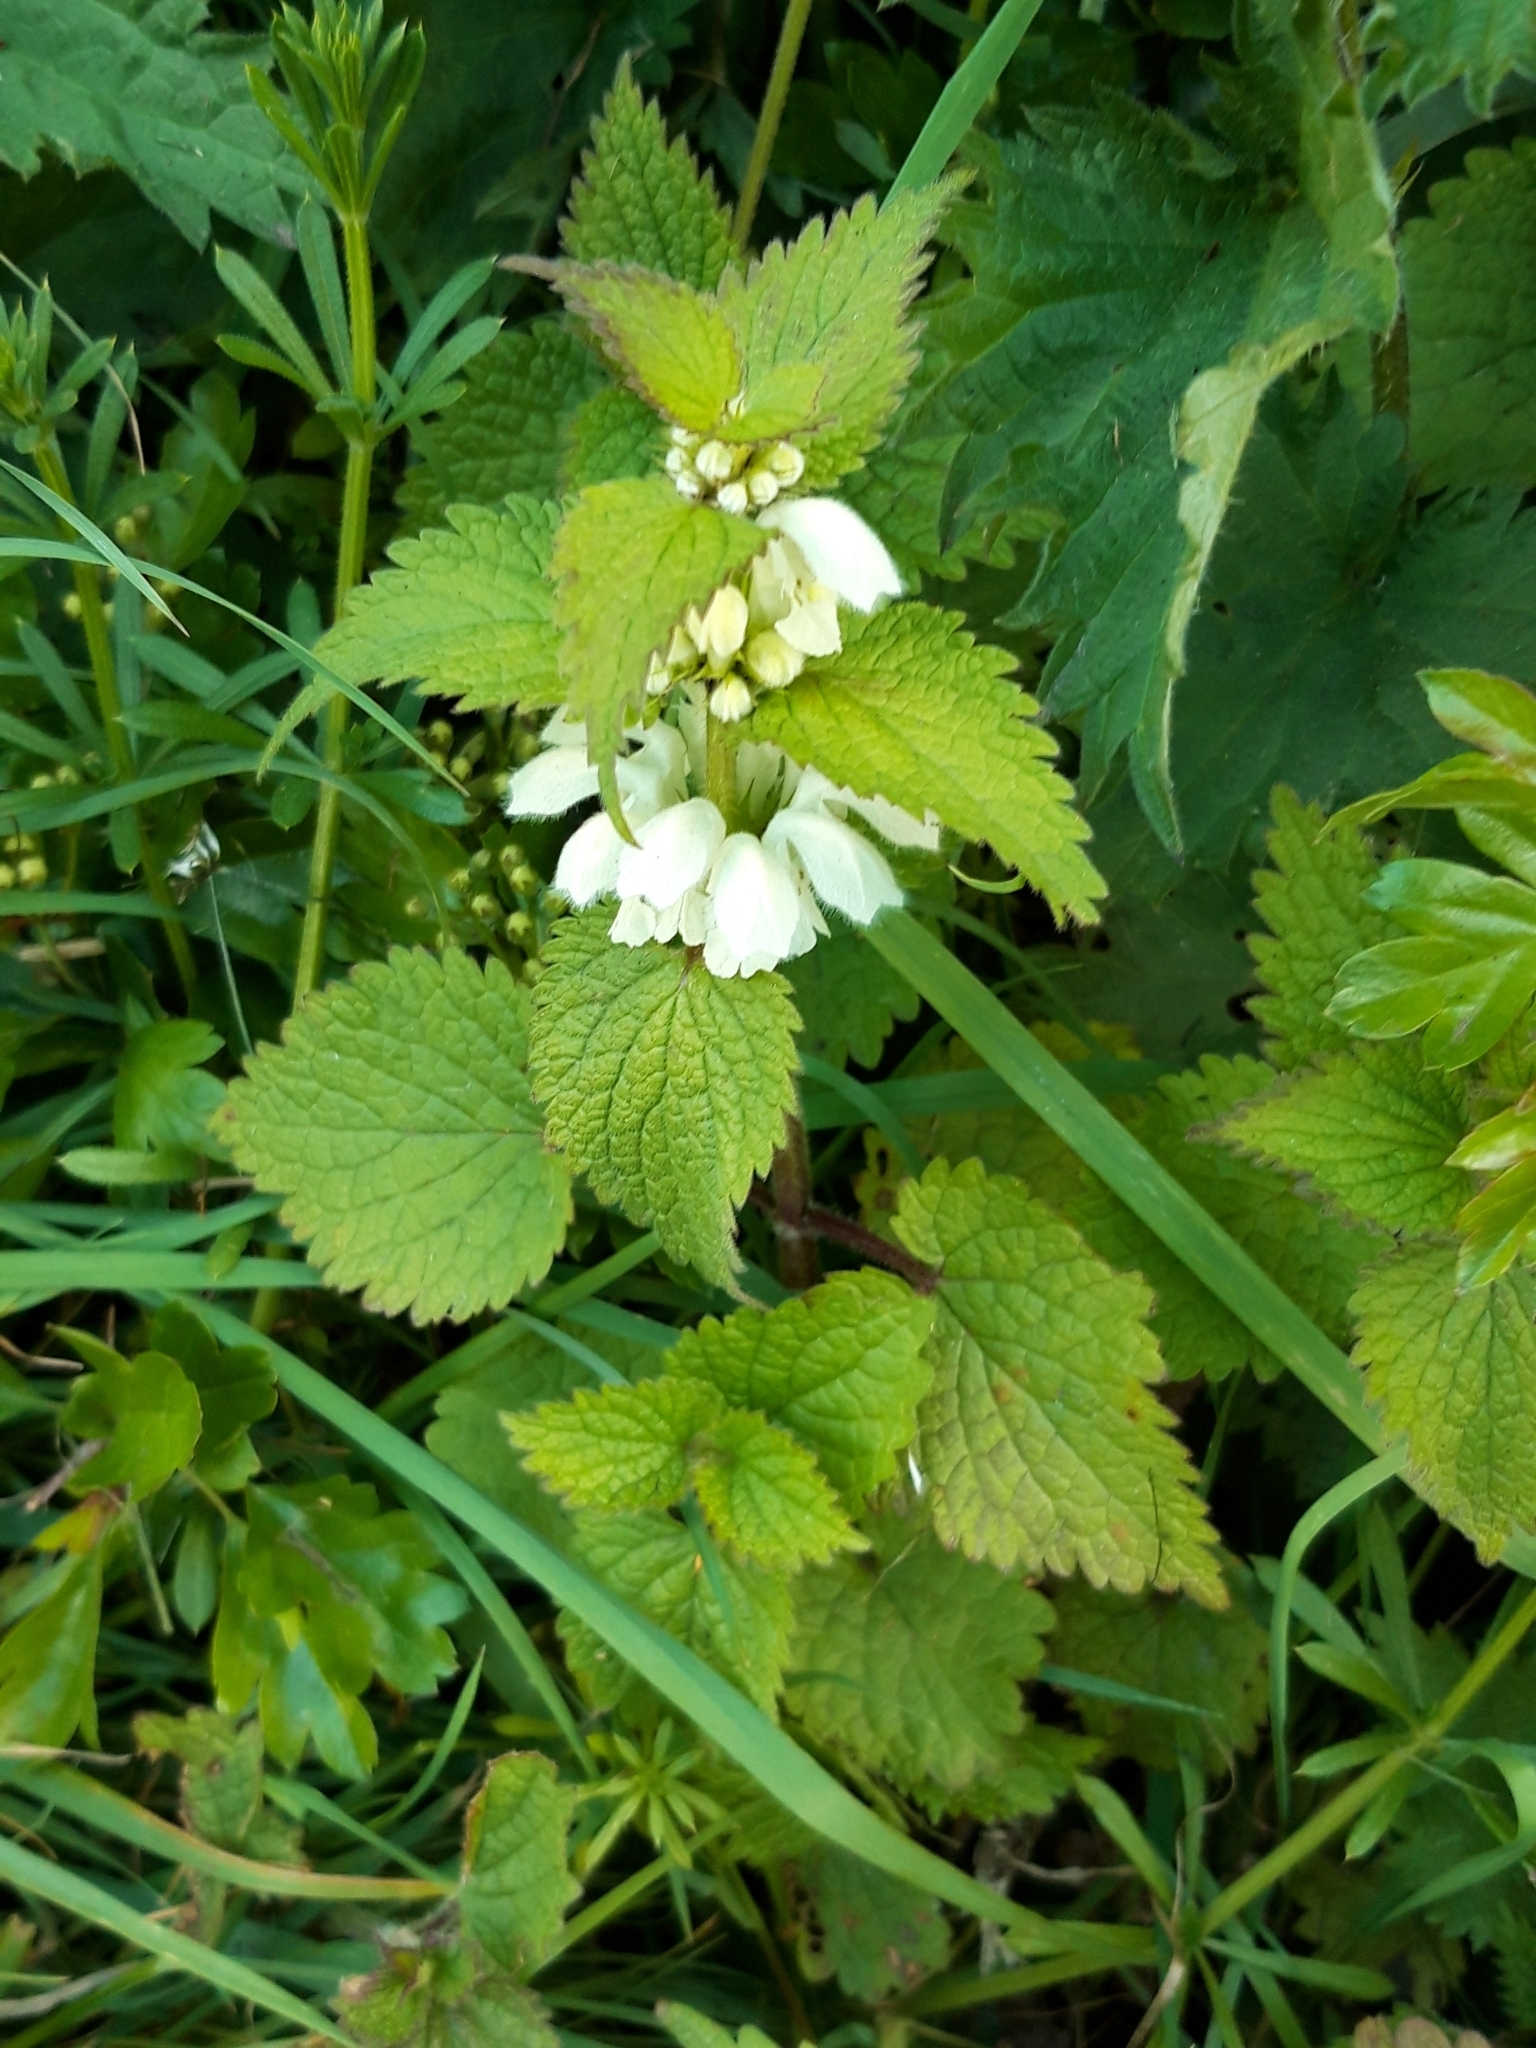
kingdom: Plantae
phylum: Tracheophyta
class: Magnoliopsida
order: Lamiales
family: Lamiaceae
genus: Lamium
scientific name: Lamium album
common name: White dead-nettle
